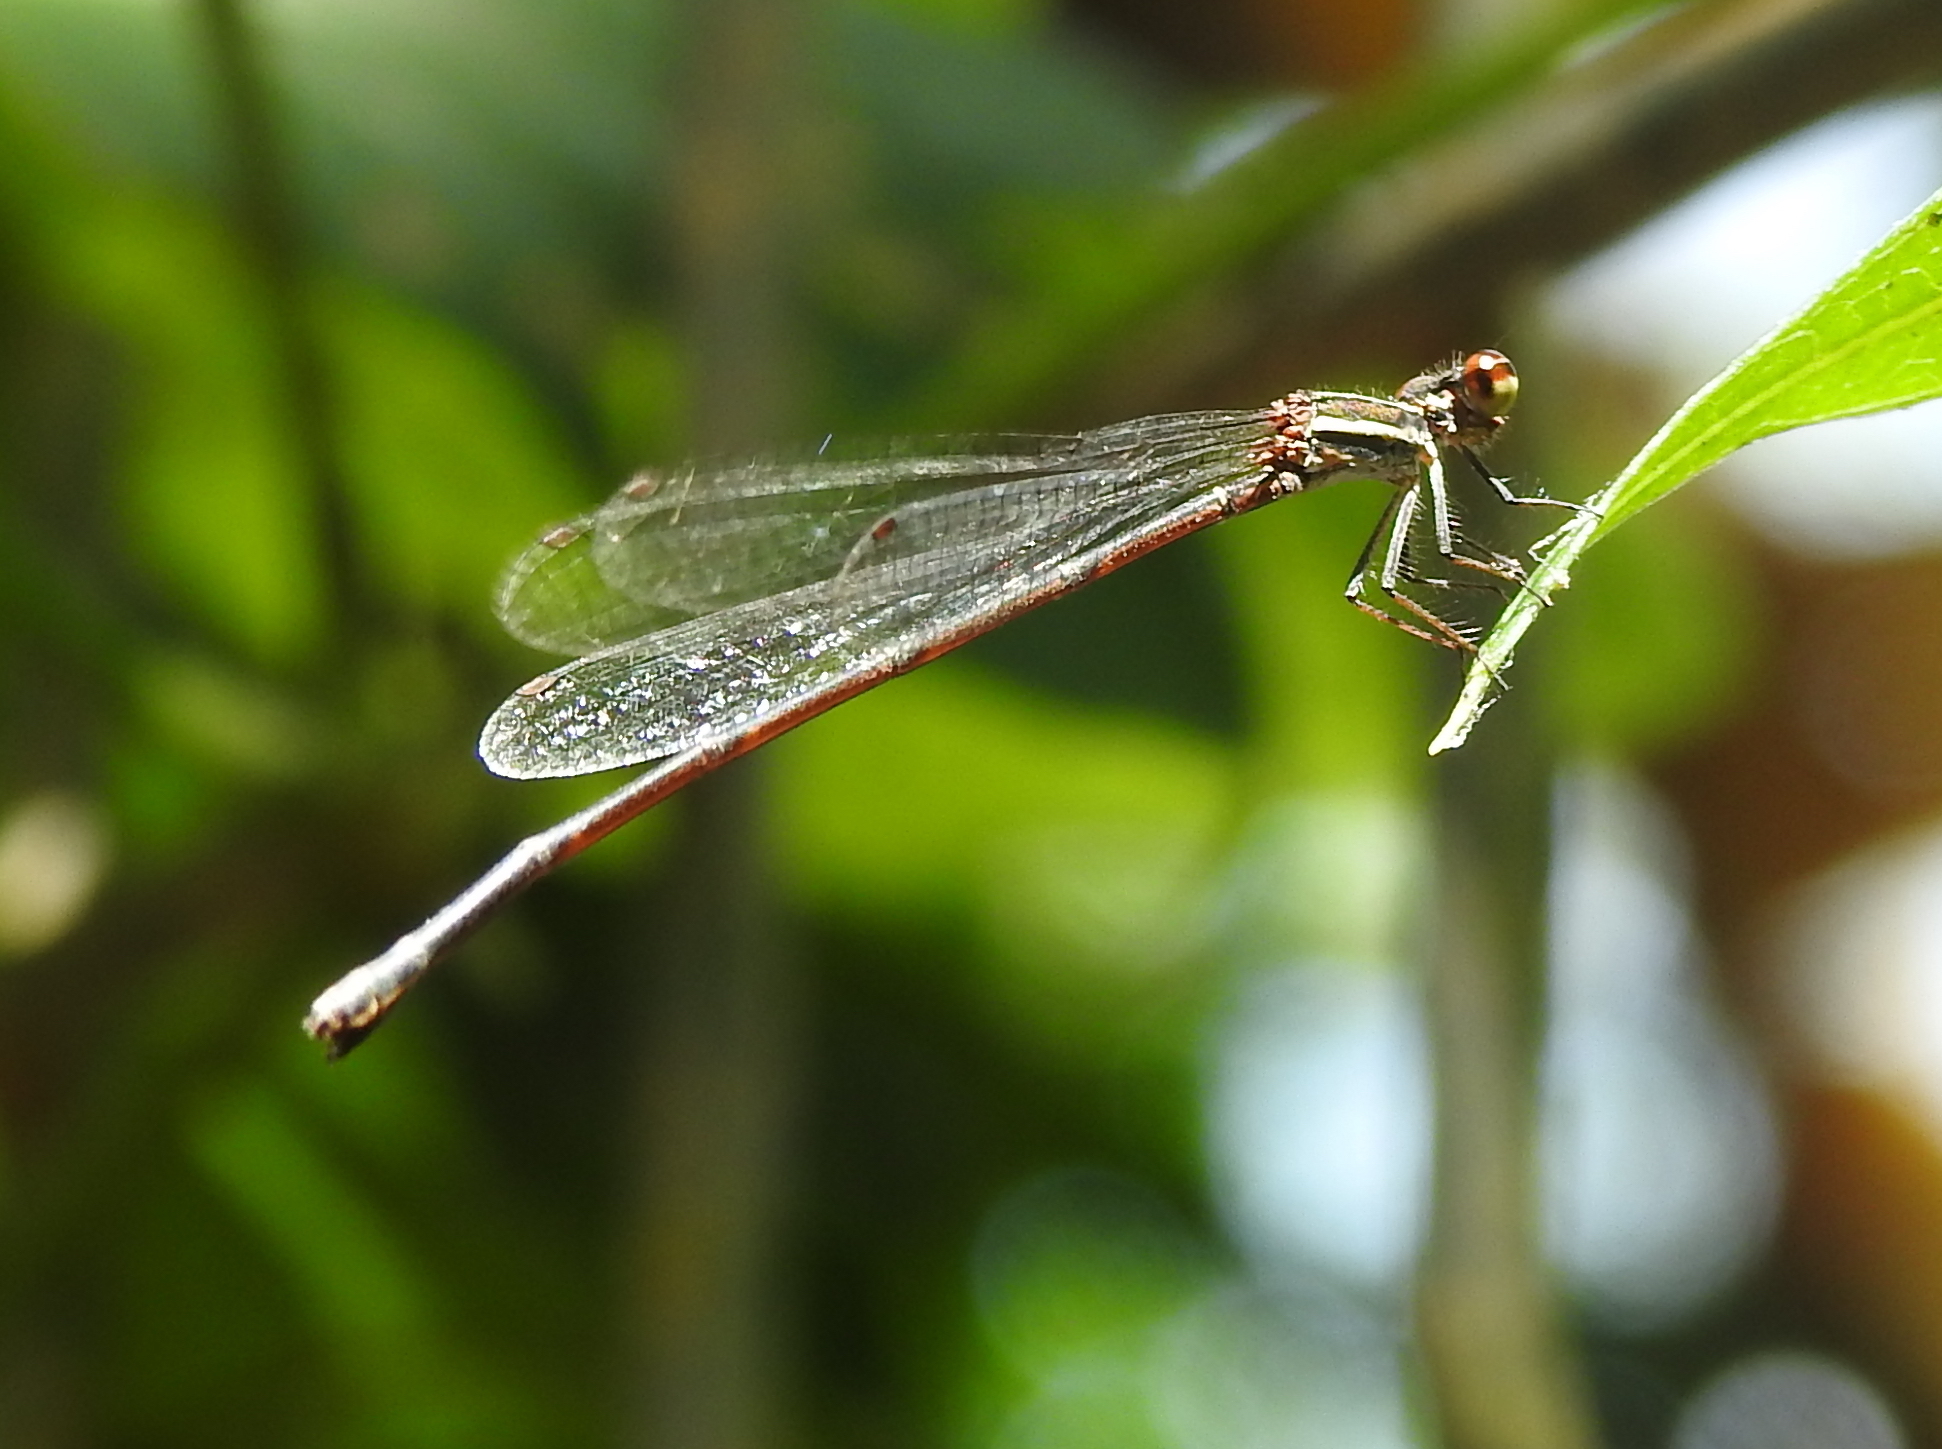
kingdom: Animalia
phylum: Arthropoda
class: Insecta
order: Odonata
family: Platycnemididae
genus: Prodasineura
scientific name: Prodasineura autumnalis
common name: Black threadtail
